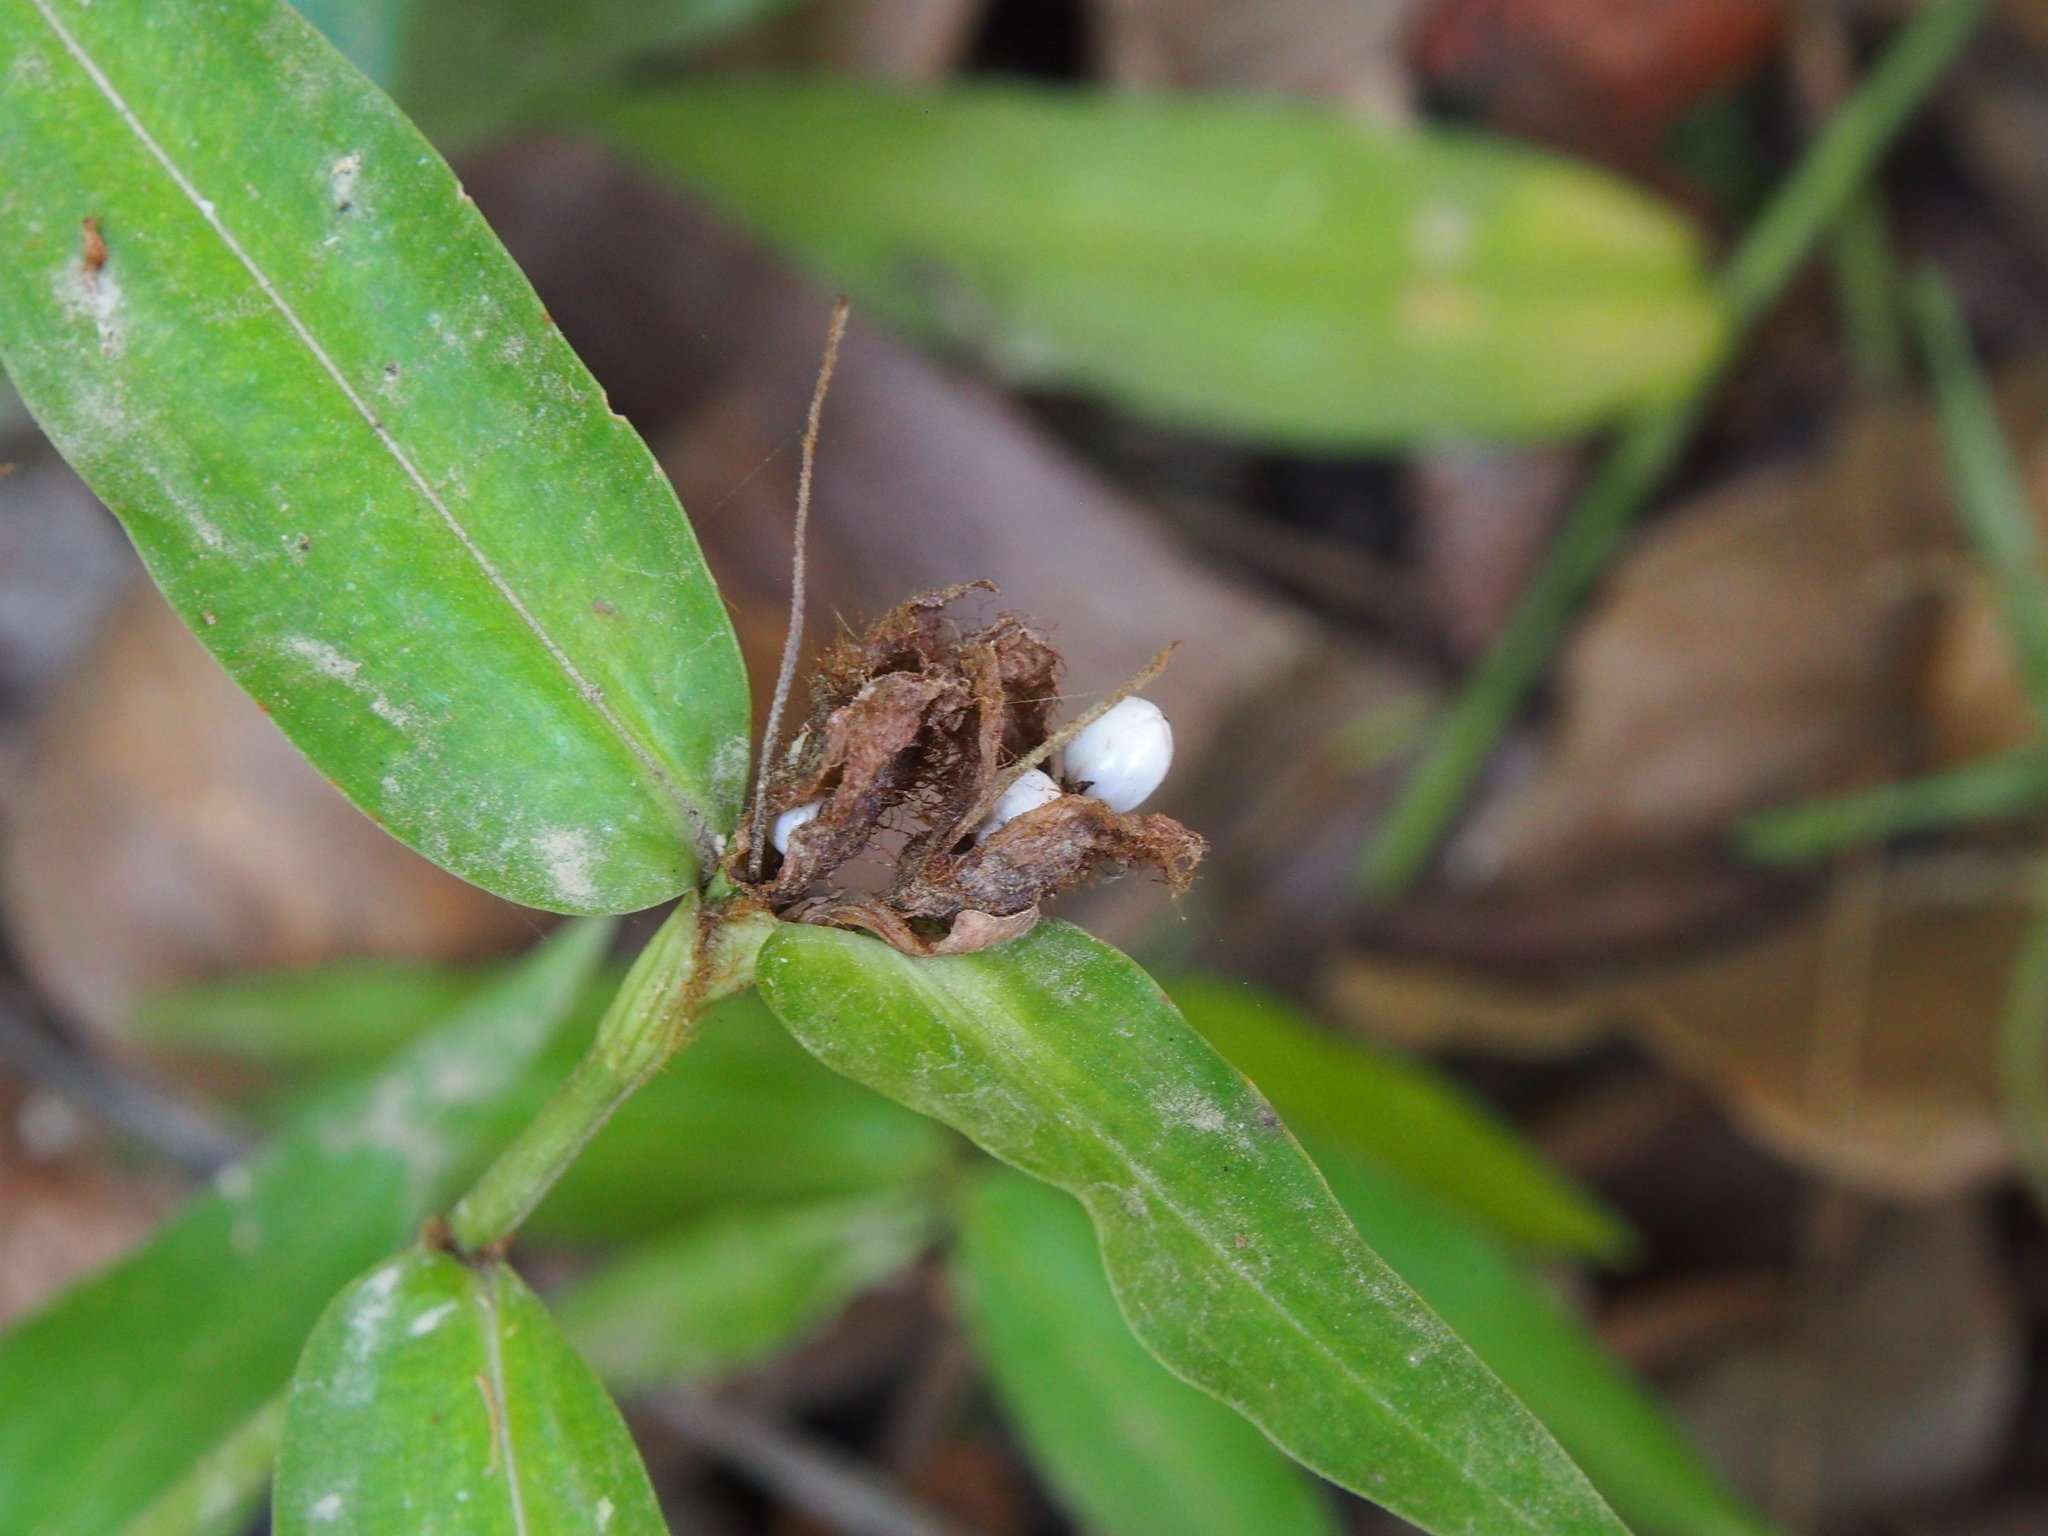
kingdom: Plantae
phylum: Tracheophyta
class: Liliopsida
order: Commelinales
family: Commelinaceae
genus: Commelina
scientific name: Commelina rufipes
